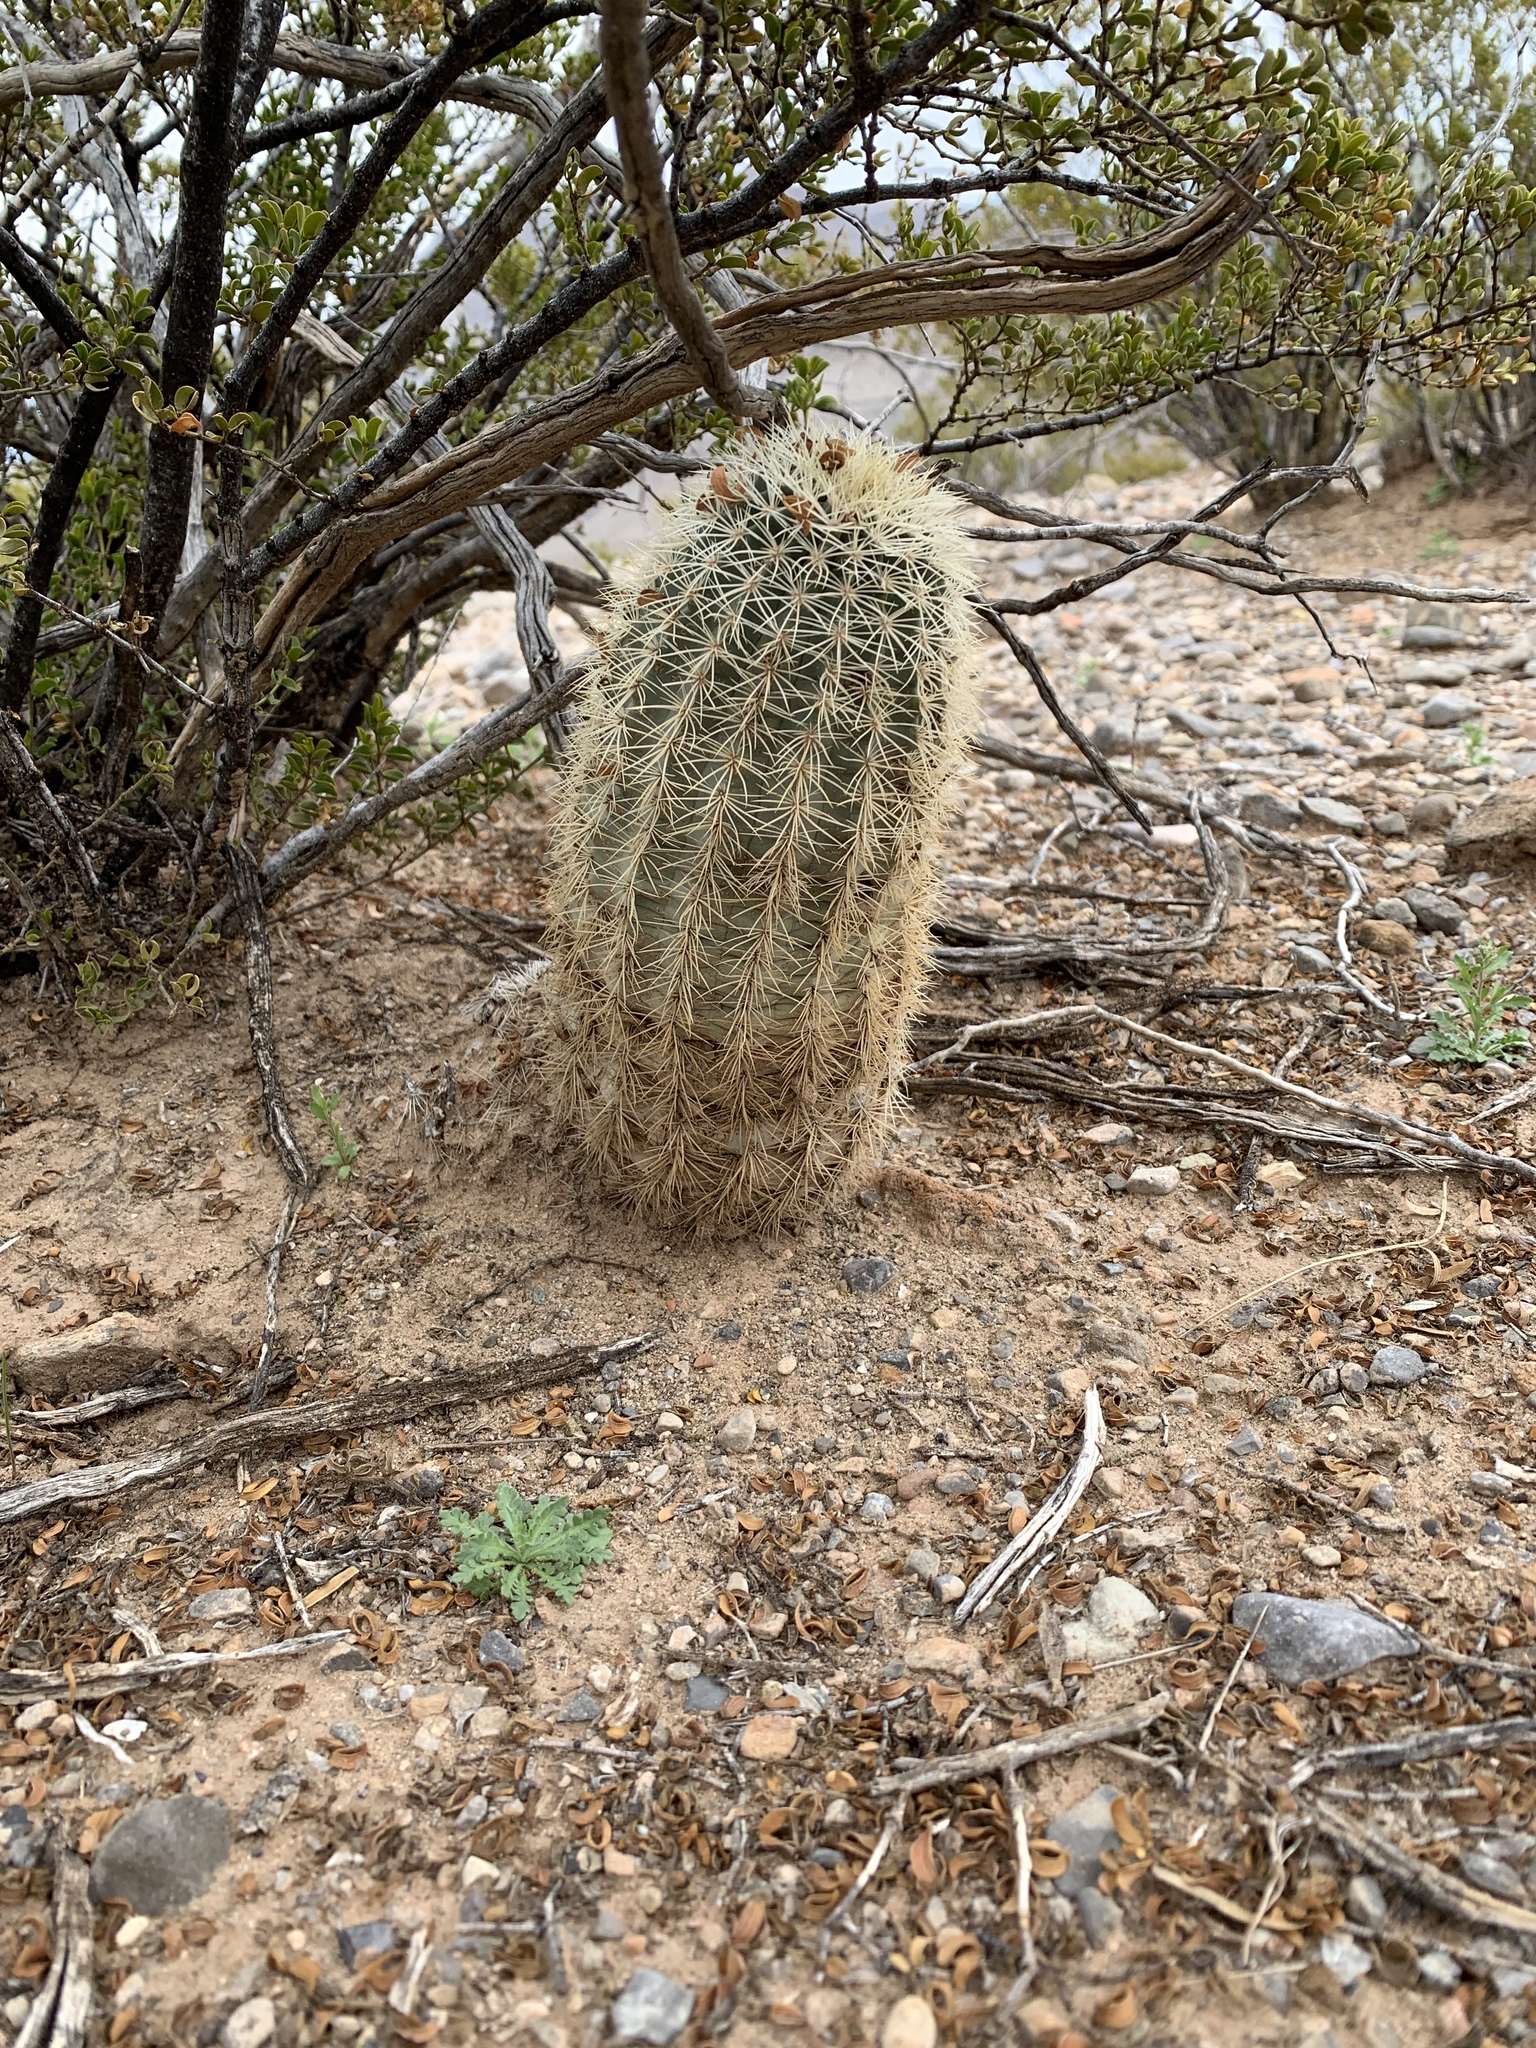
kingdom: Plantae
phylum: Tracheophyta
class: Magnoliopsida
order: Caryophyllales
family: Cactaceae
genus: Echinocereus
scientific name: Echinocereus dasyacanthus
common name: Spiny hedgehog cactus
